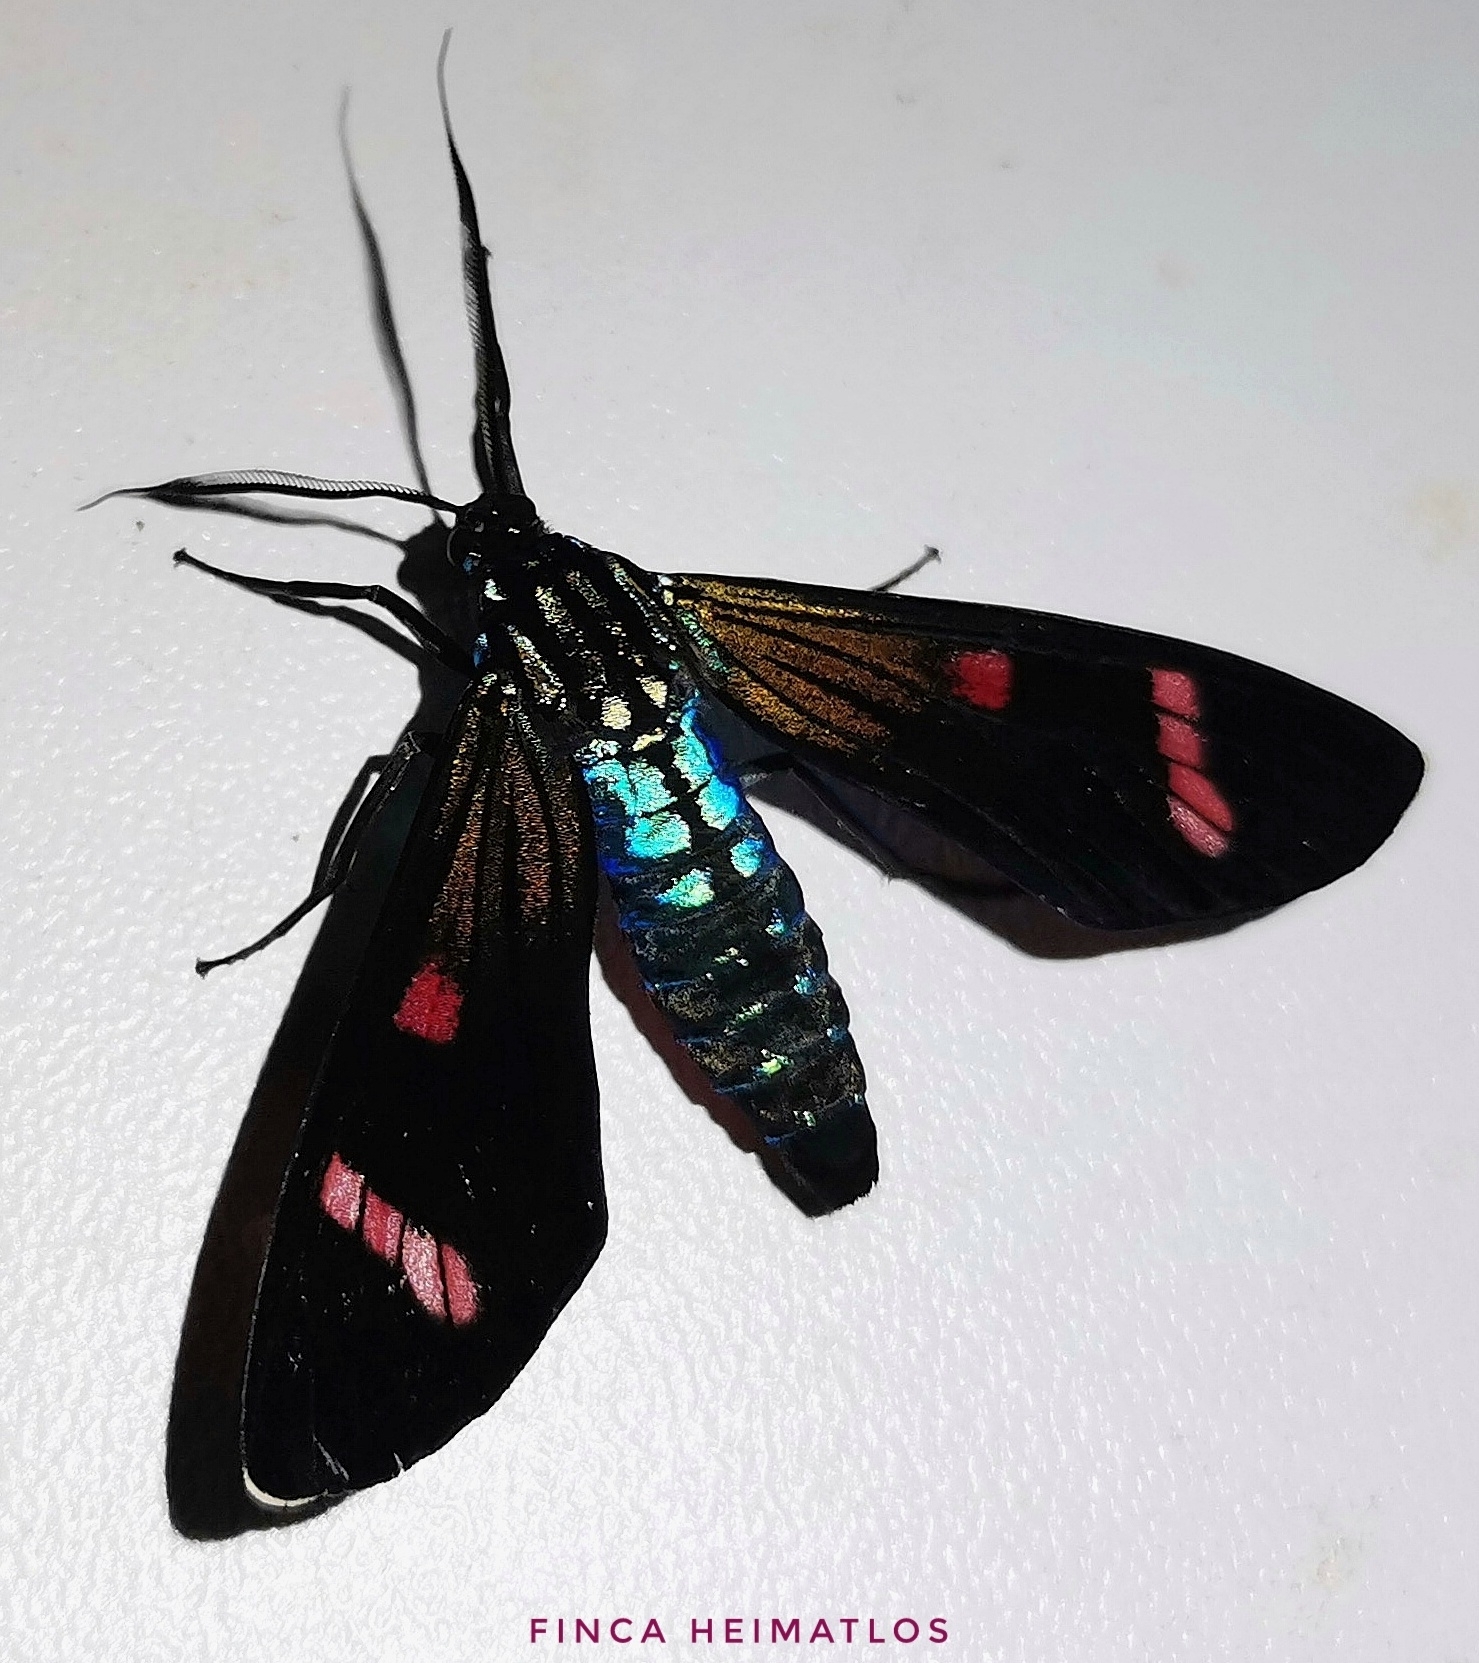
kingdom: Animalia
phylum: Arthropoda
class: Insecta
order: Lepidoptera
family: Erebidae
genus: Diospage
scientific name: Diospage splendens
